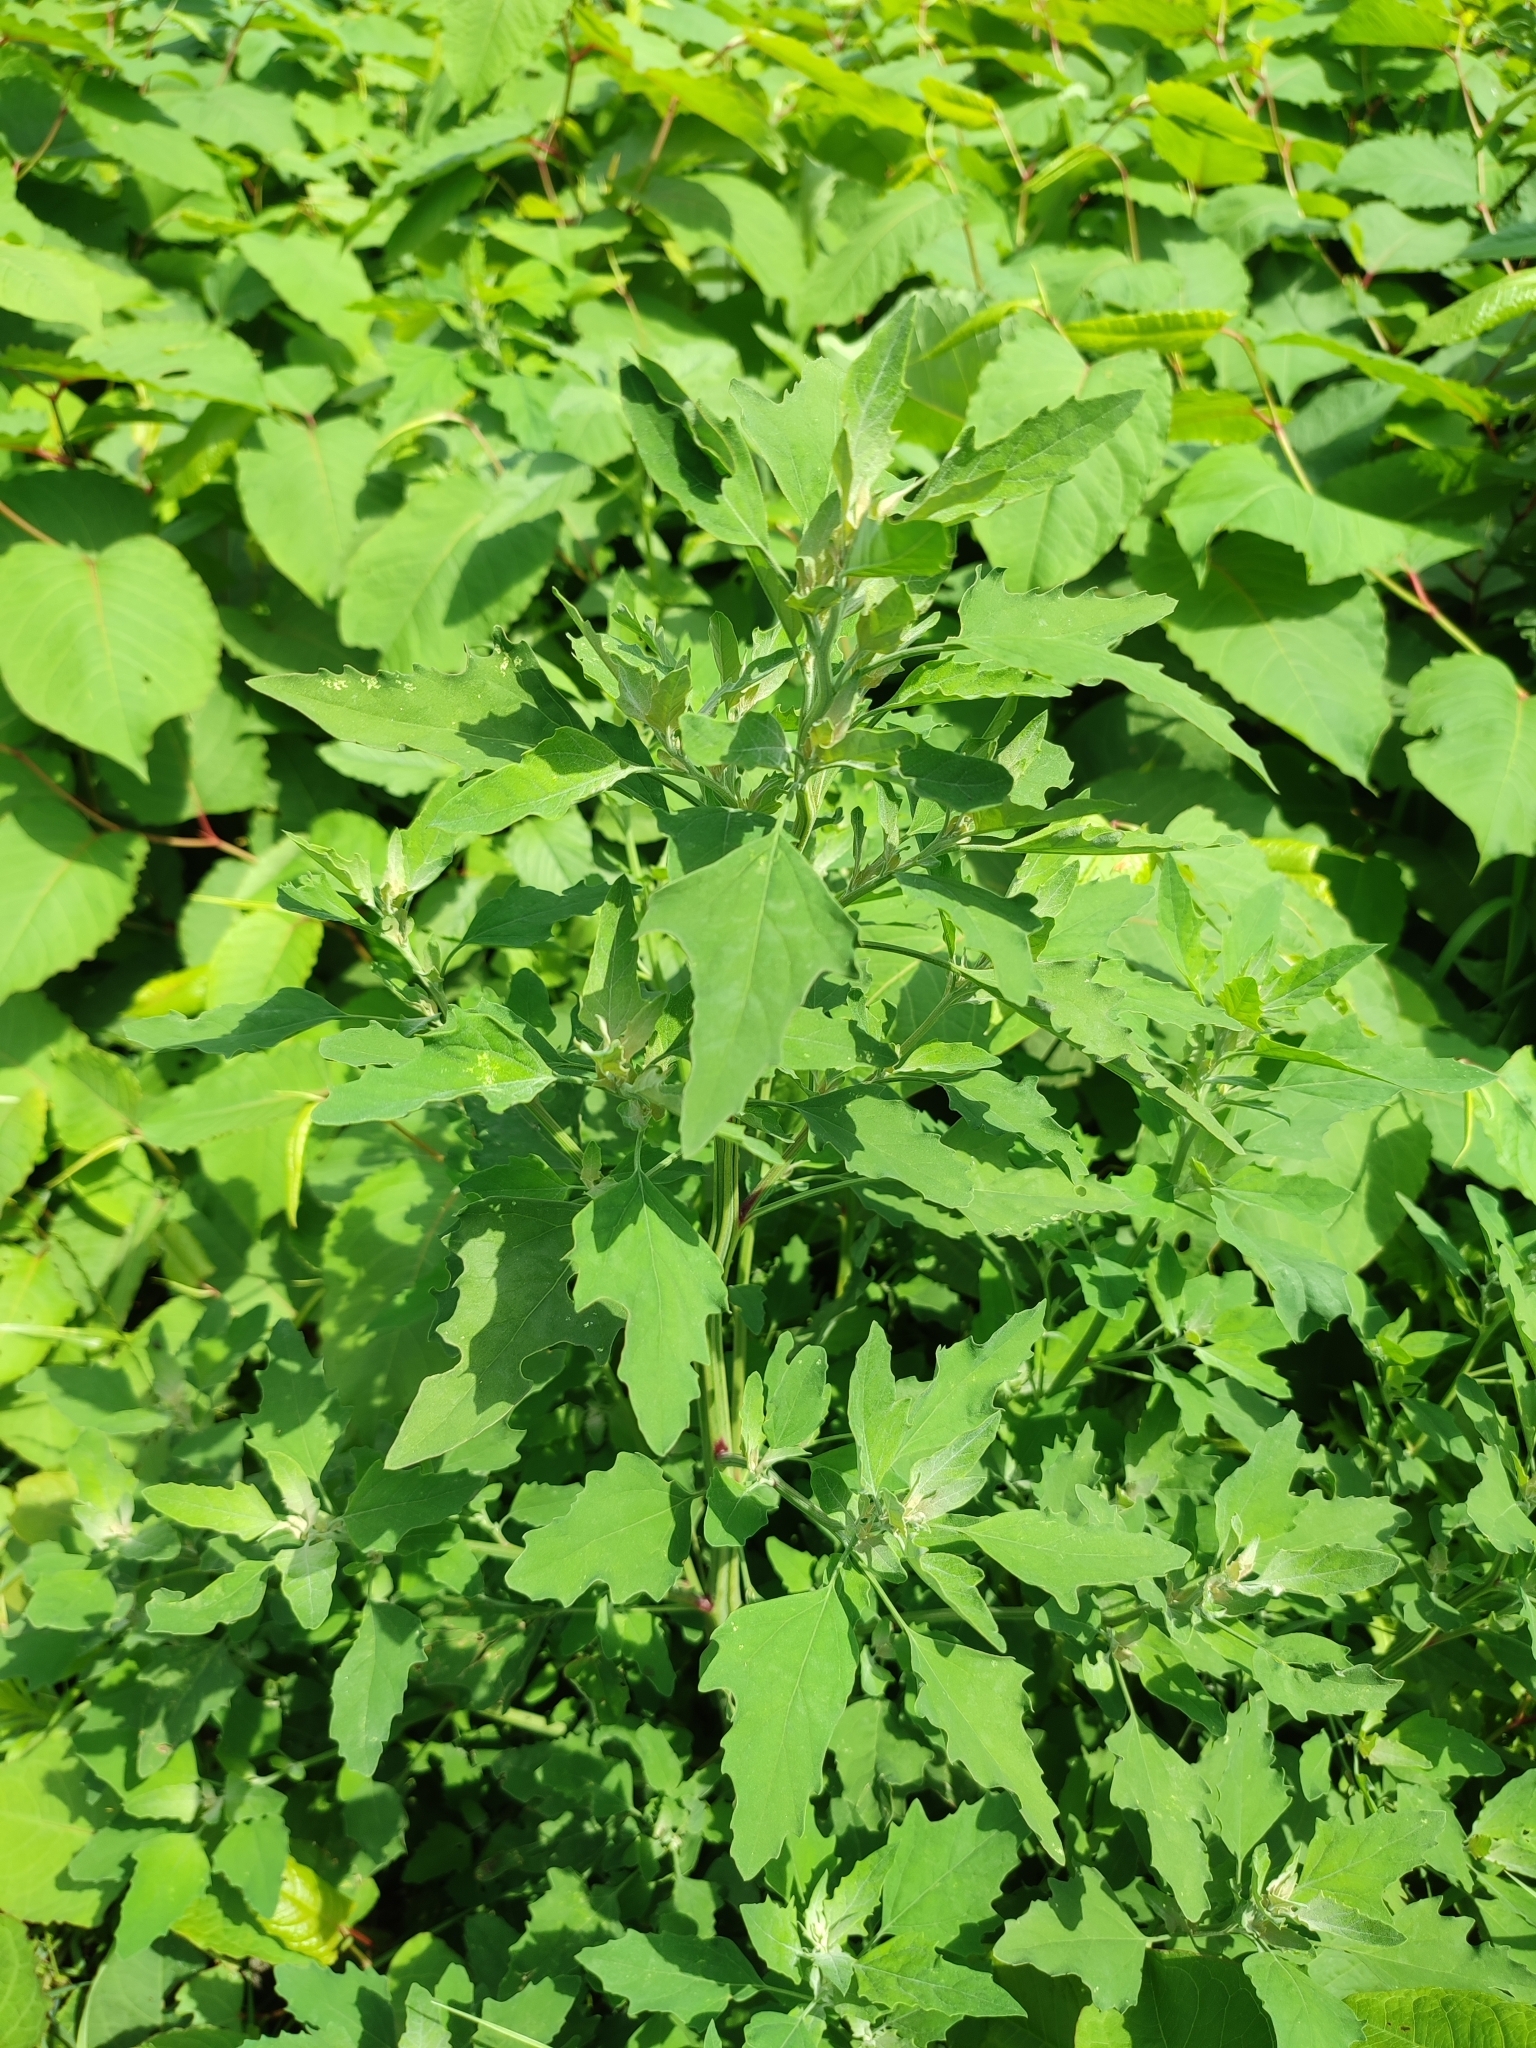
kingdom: Plantae
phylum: Tracheophyta
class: Magnoliopsida
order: Caryophyllales
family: Amaranthaceae
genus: Chenopodium
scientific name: Chenopodium album
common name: Fat-hen
